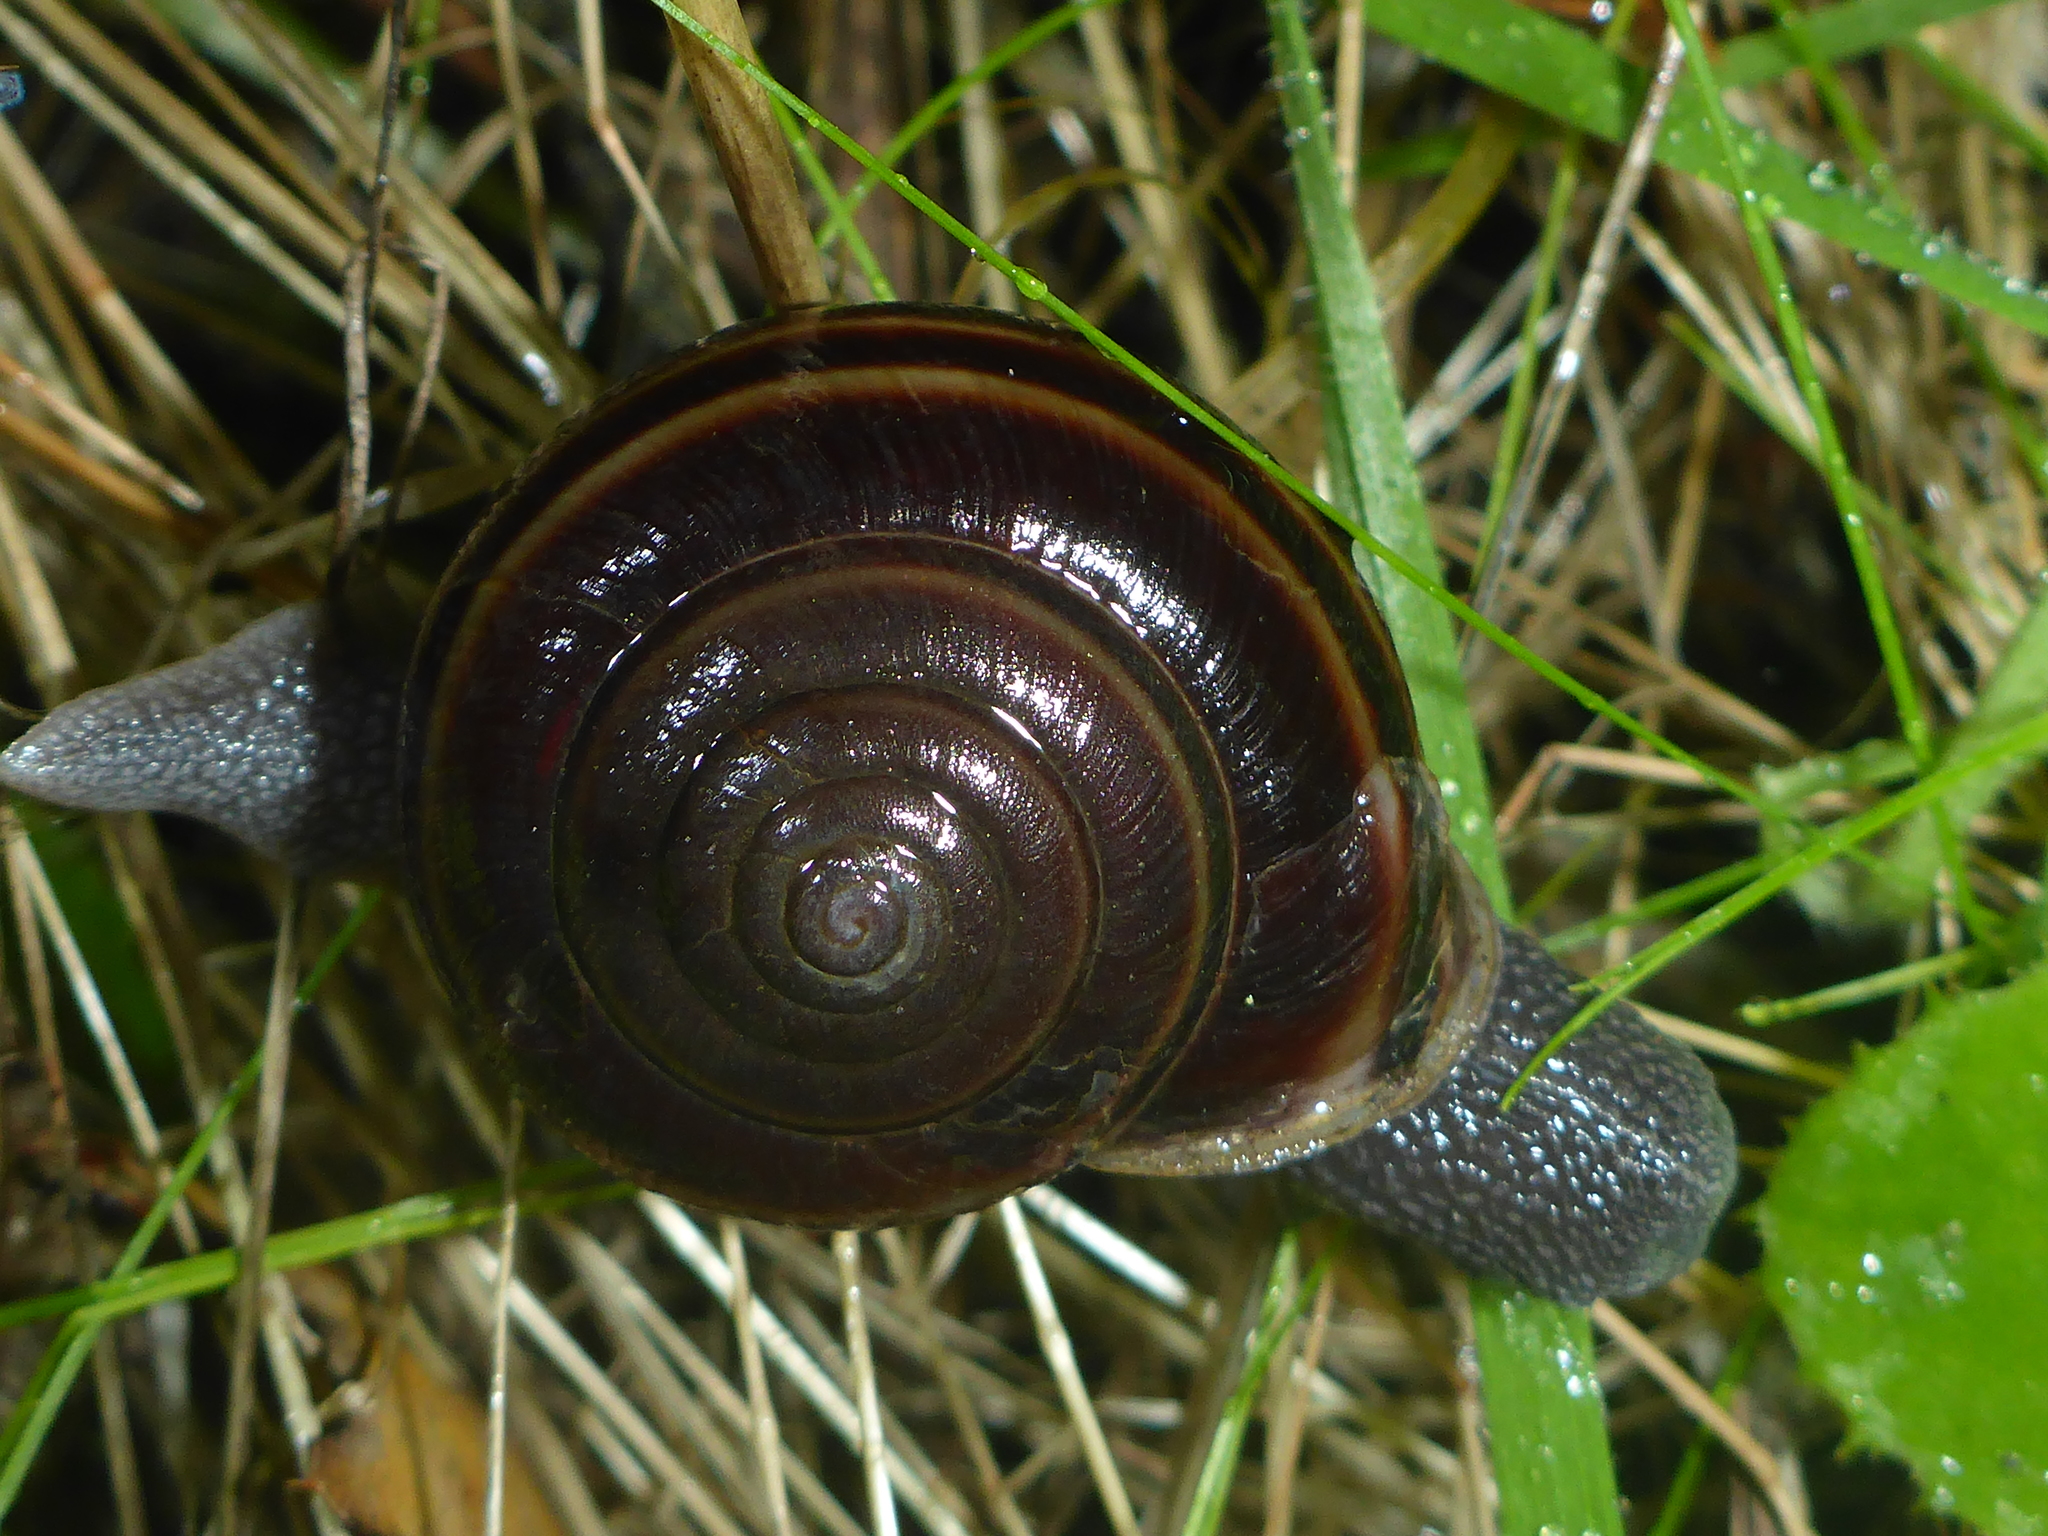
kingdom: Animalia
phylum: Mollusca
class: Gastropoda
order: Stylommatophora
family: Xanthonychidae
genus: Helminthoglypta
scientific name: Helminthoglypta sequoicola
